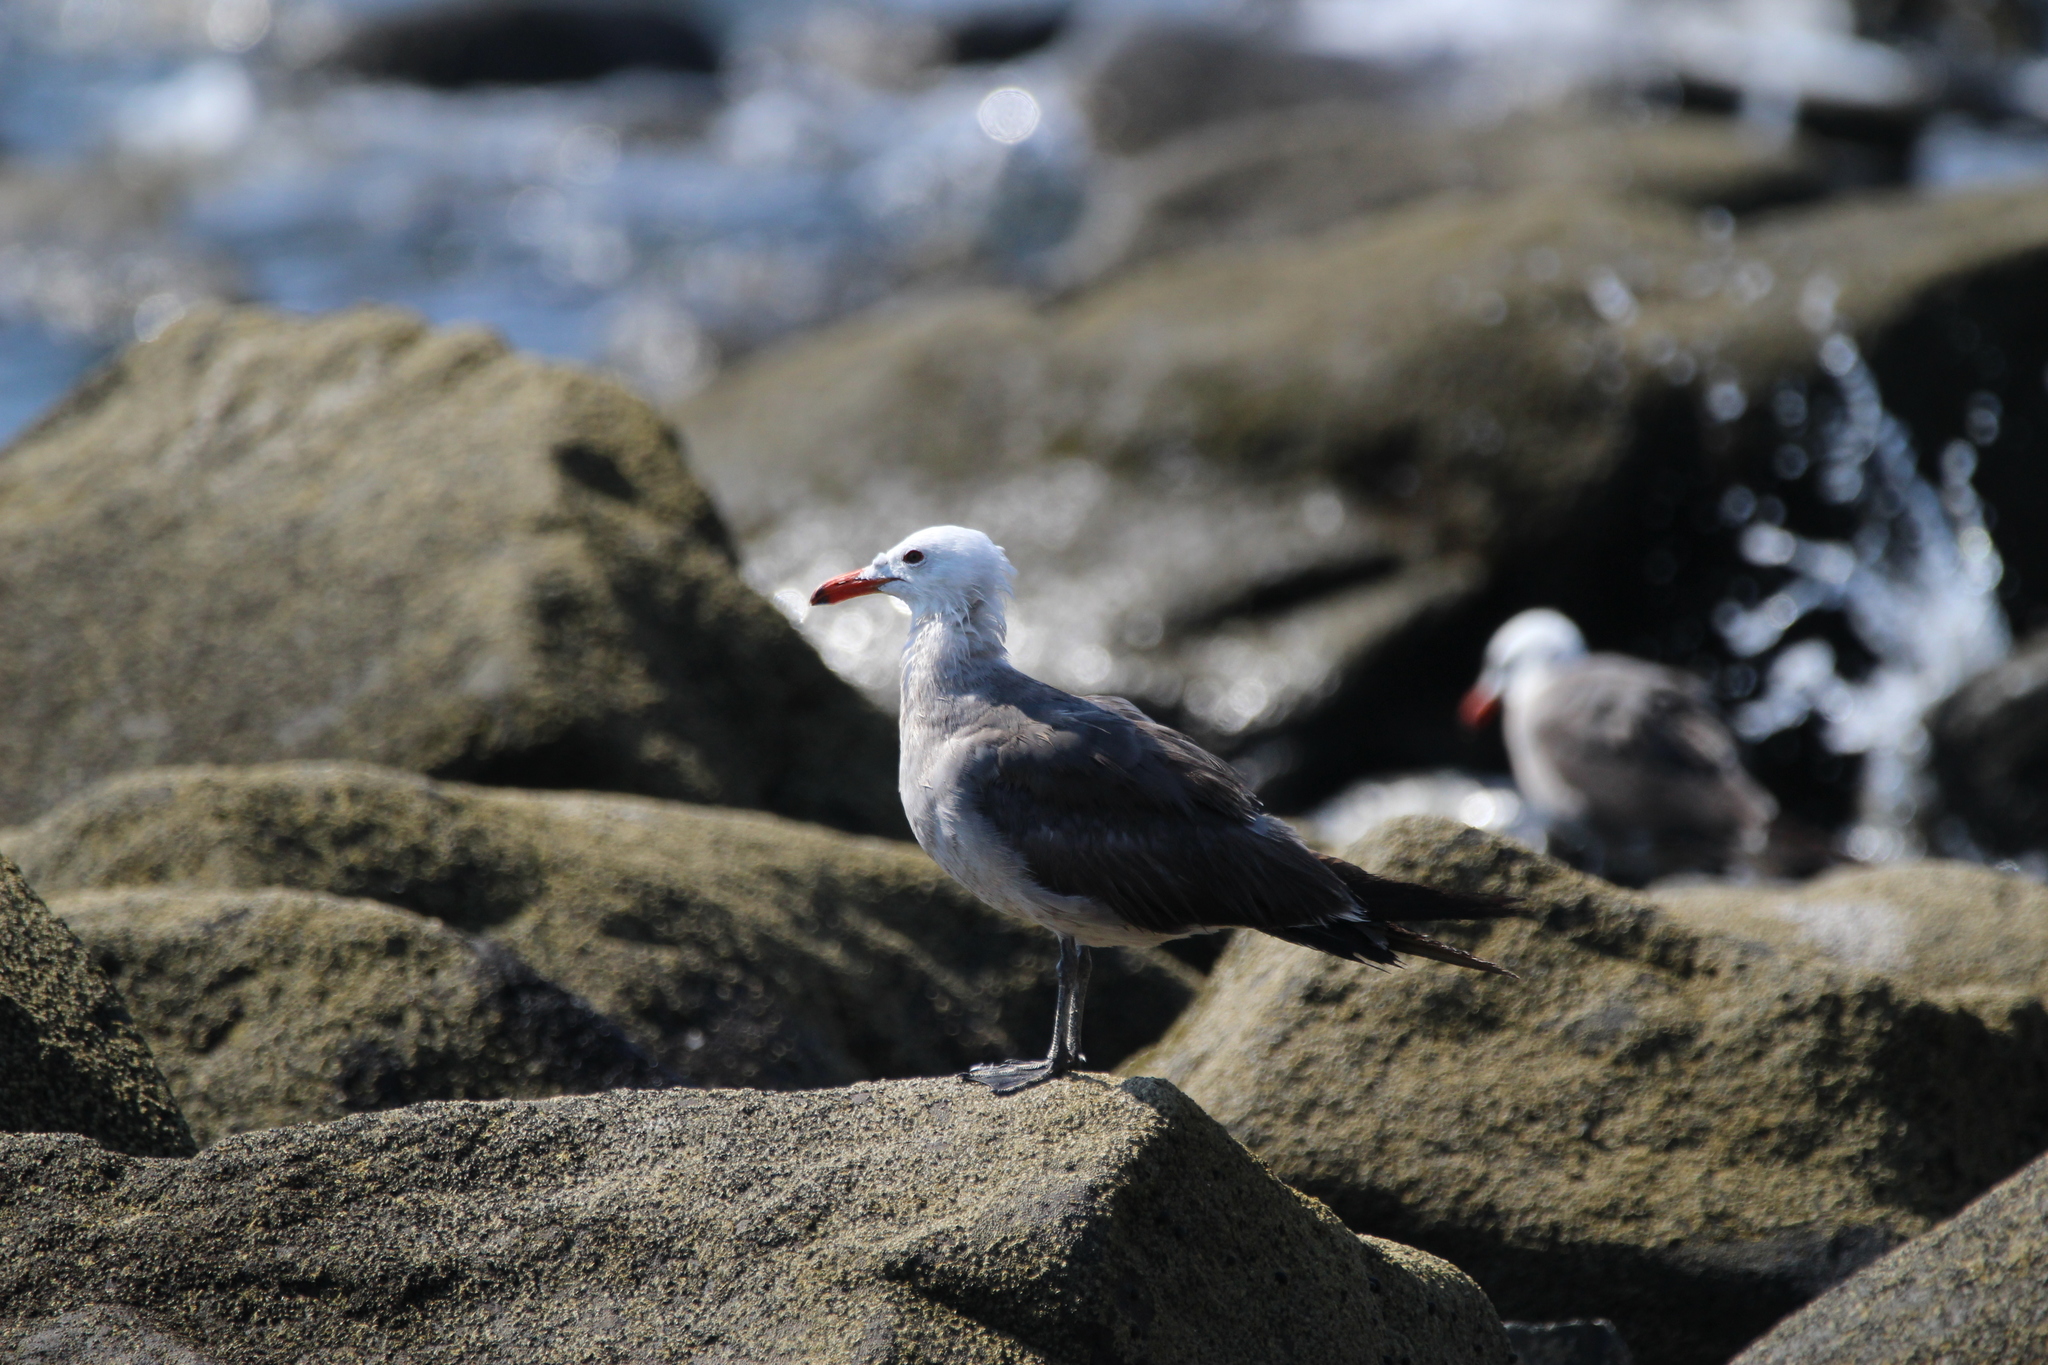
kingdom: Animalia
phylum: Chordata
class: Aves
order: Charadriiformes
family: Laridae
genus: Larus
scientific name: Larus heermanni
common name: Heermann's gull
